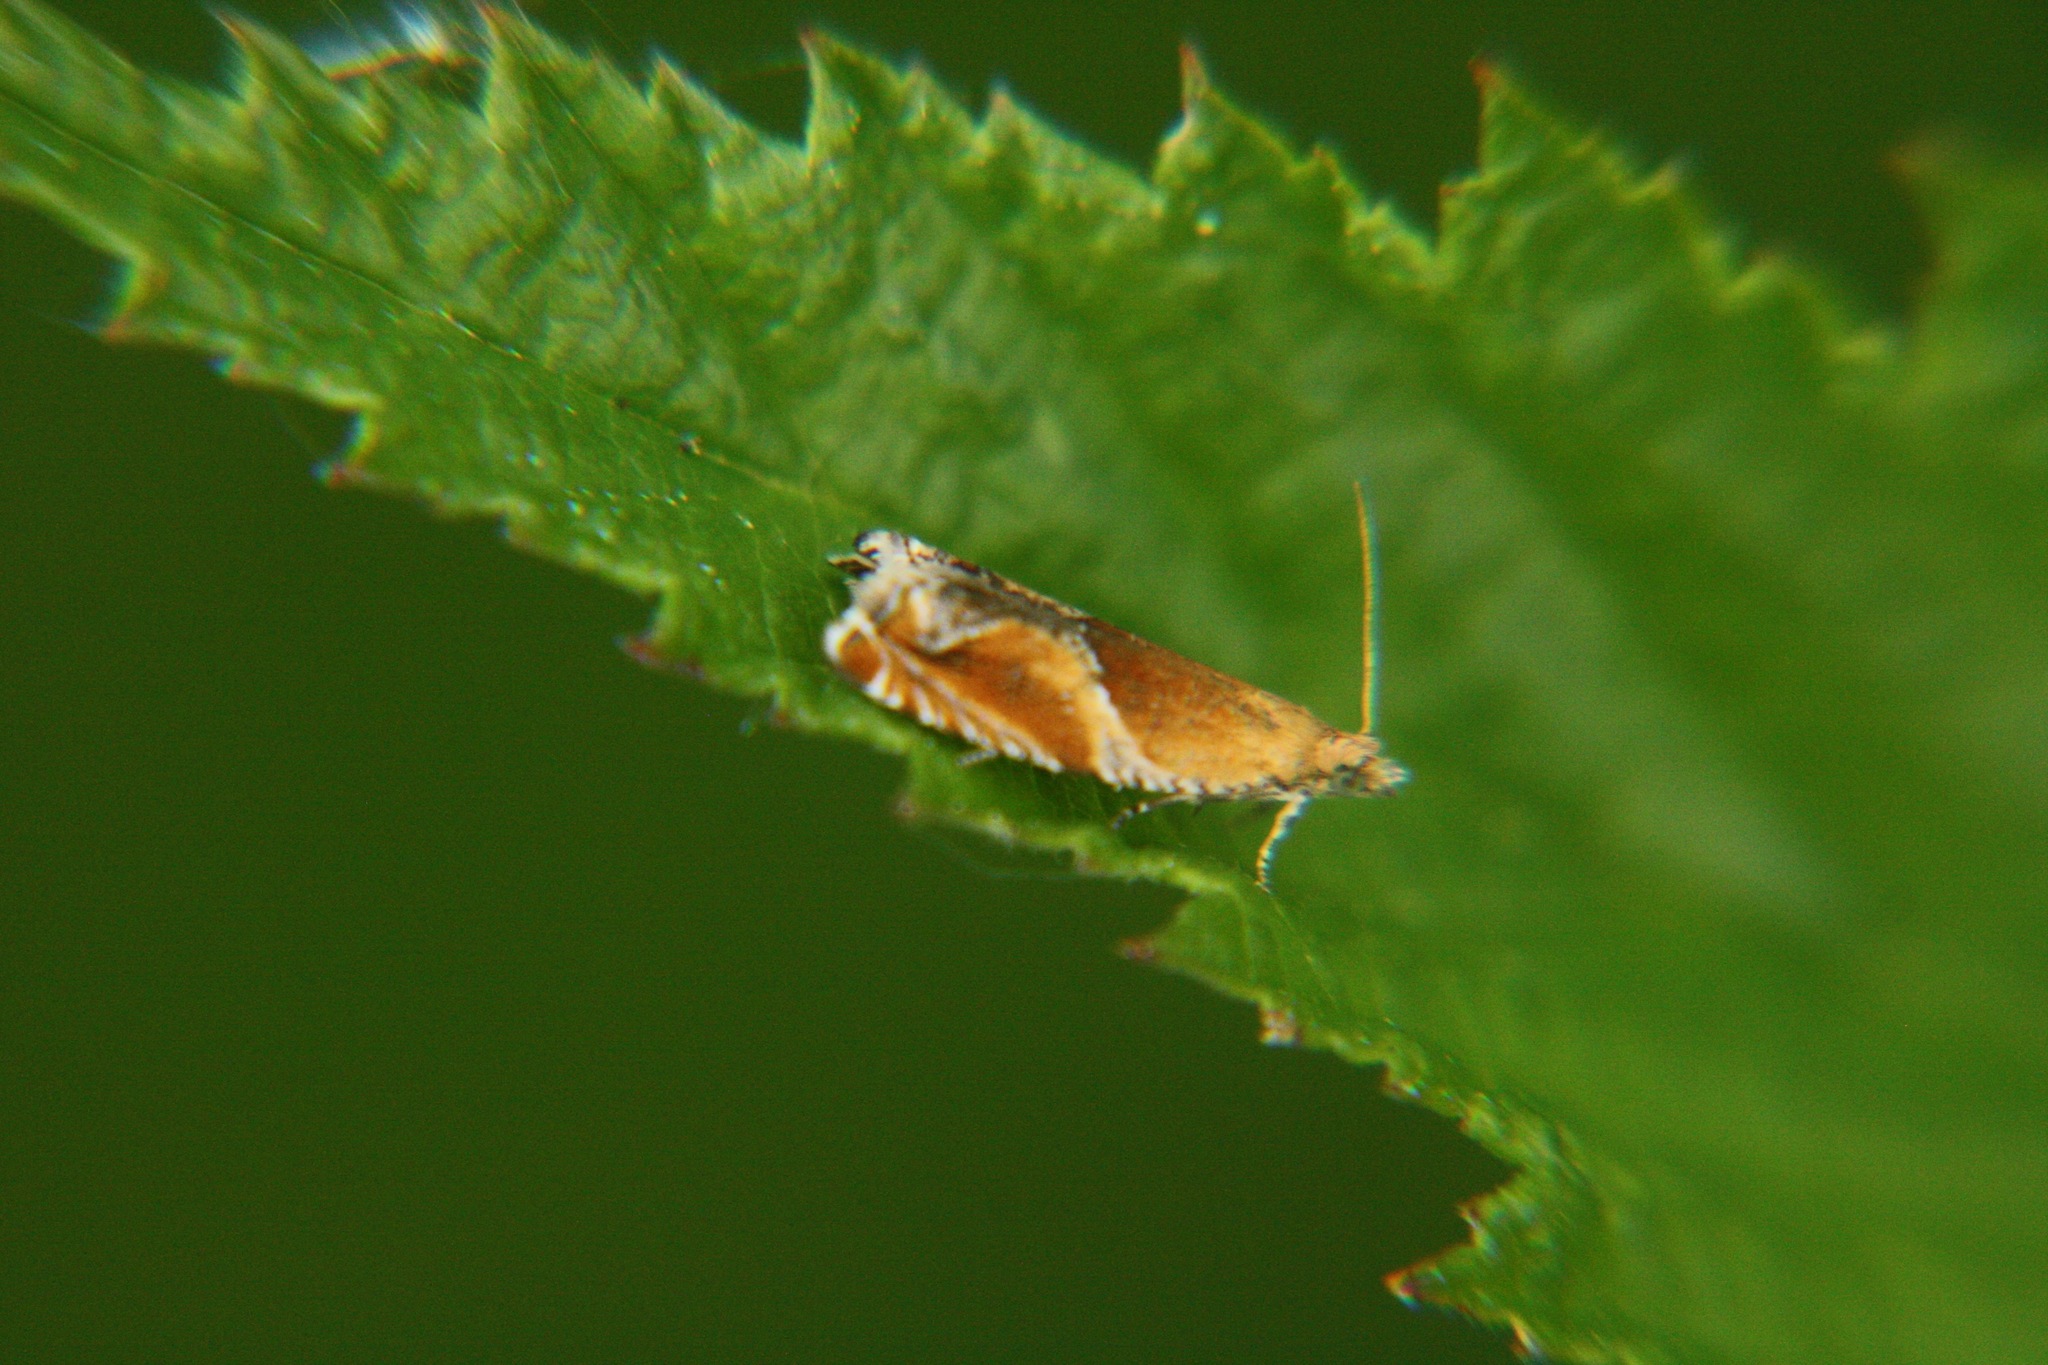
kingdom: Animalia
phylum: Arthropoda
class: Insecta
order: Lepidoptera
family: Tortricidae
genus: Ancylis
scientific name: Ancylis obtusana
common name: Small buckthorn roller
